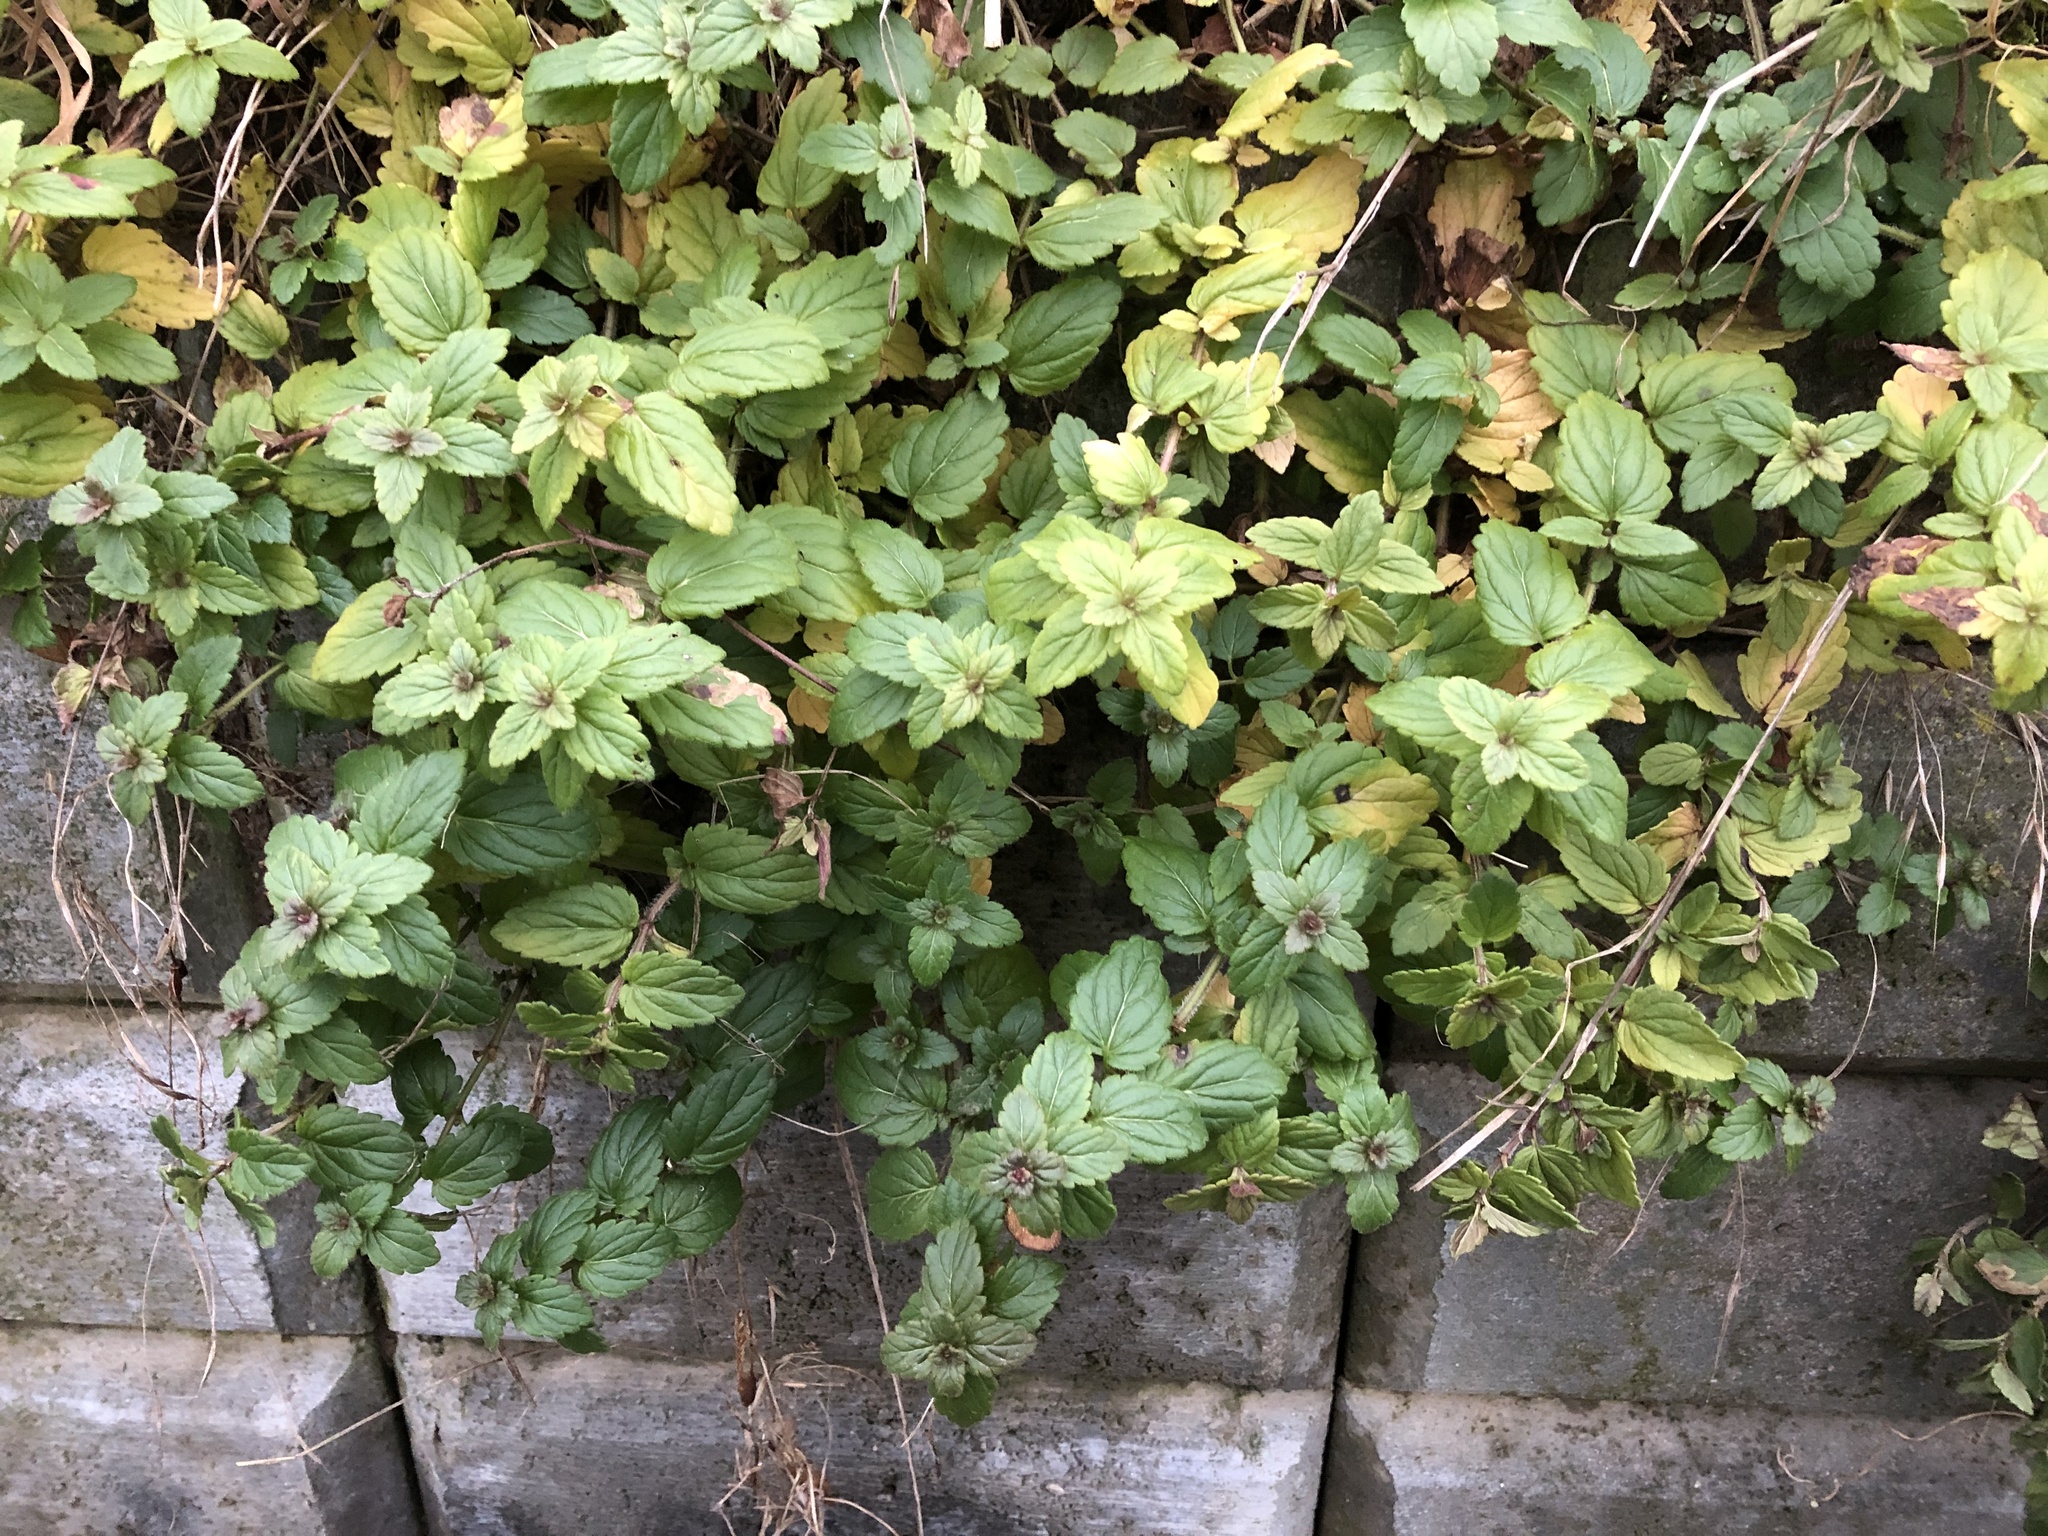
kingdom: Plantae
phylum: Tracheophyta
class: Magnoliopsida
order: Lamiales
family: Plantaginaceae
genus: Veronica
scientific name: Veronica chamaedrys
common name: Germander speedwell
